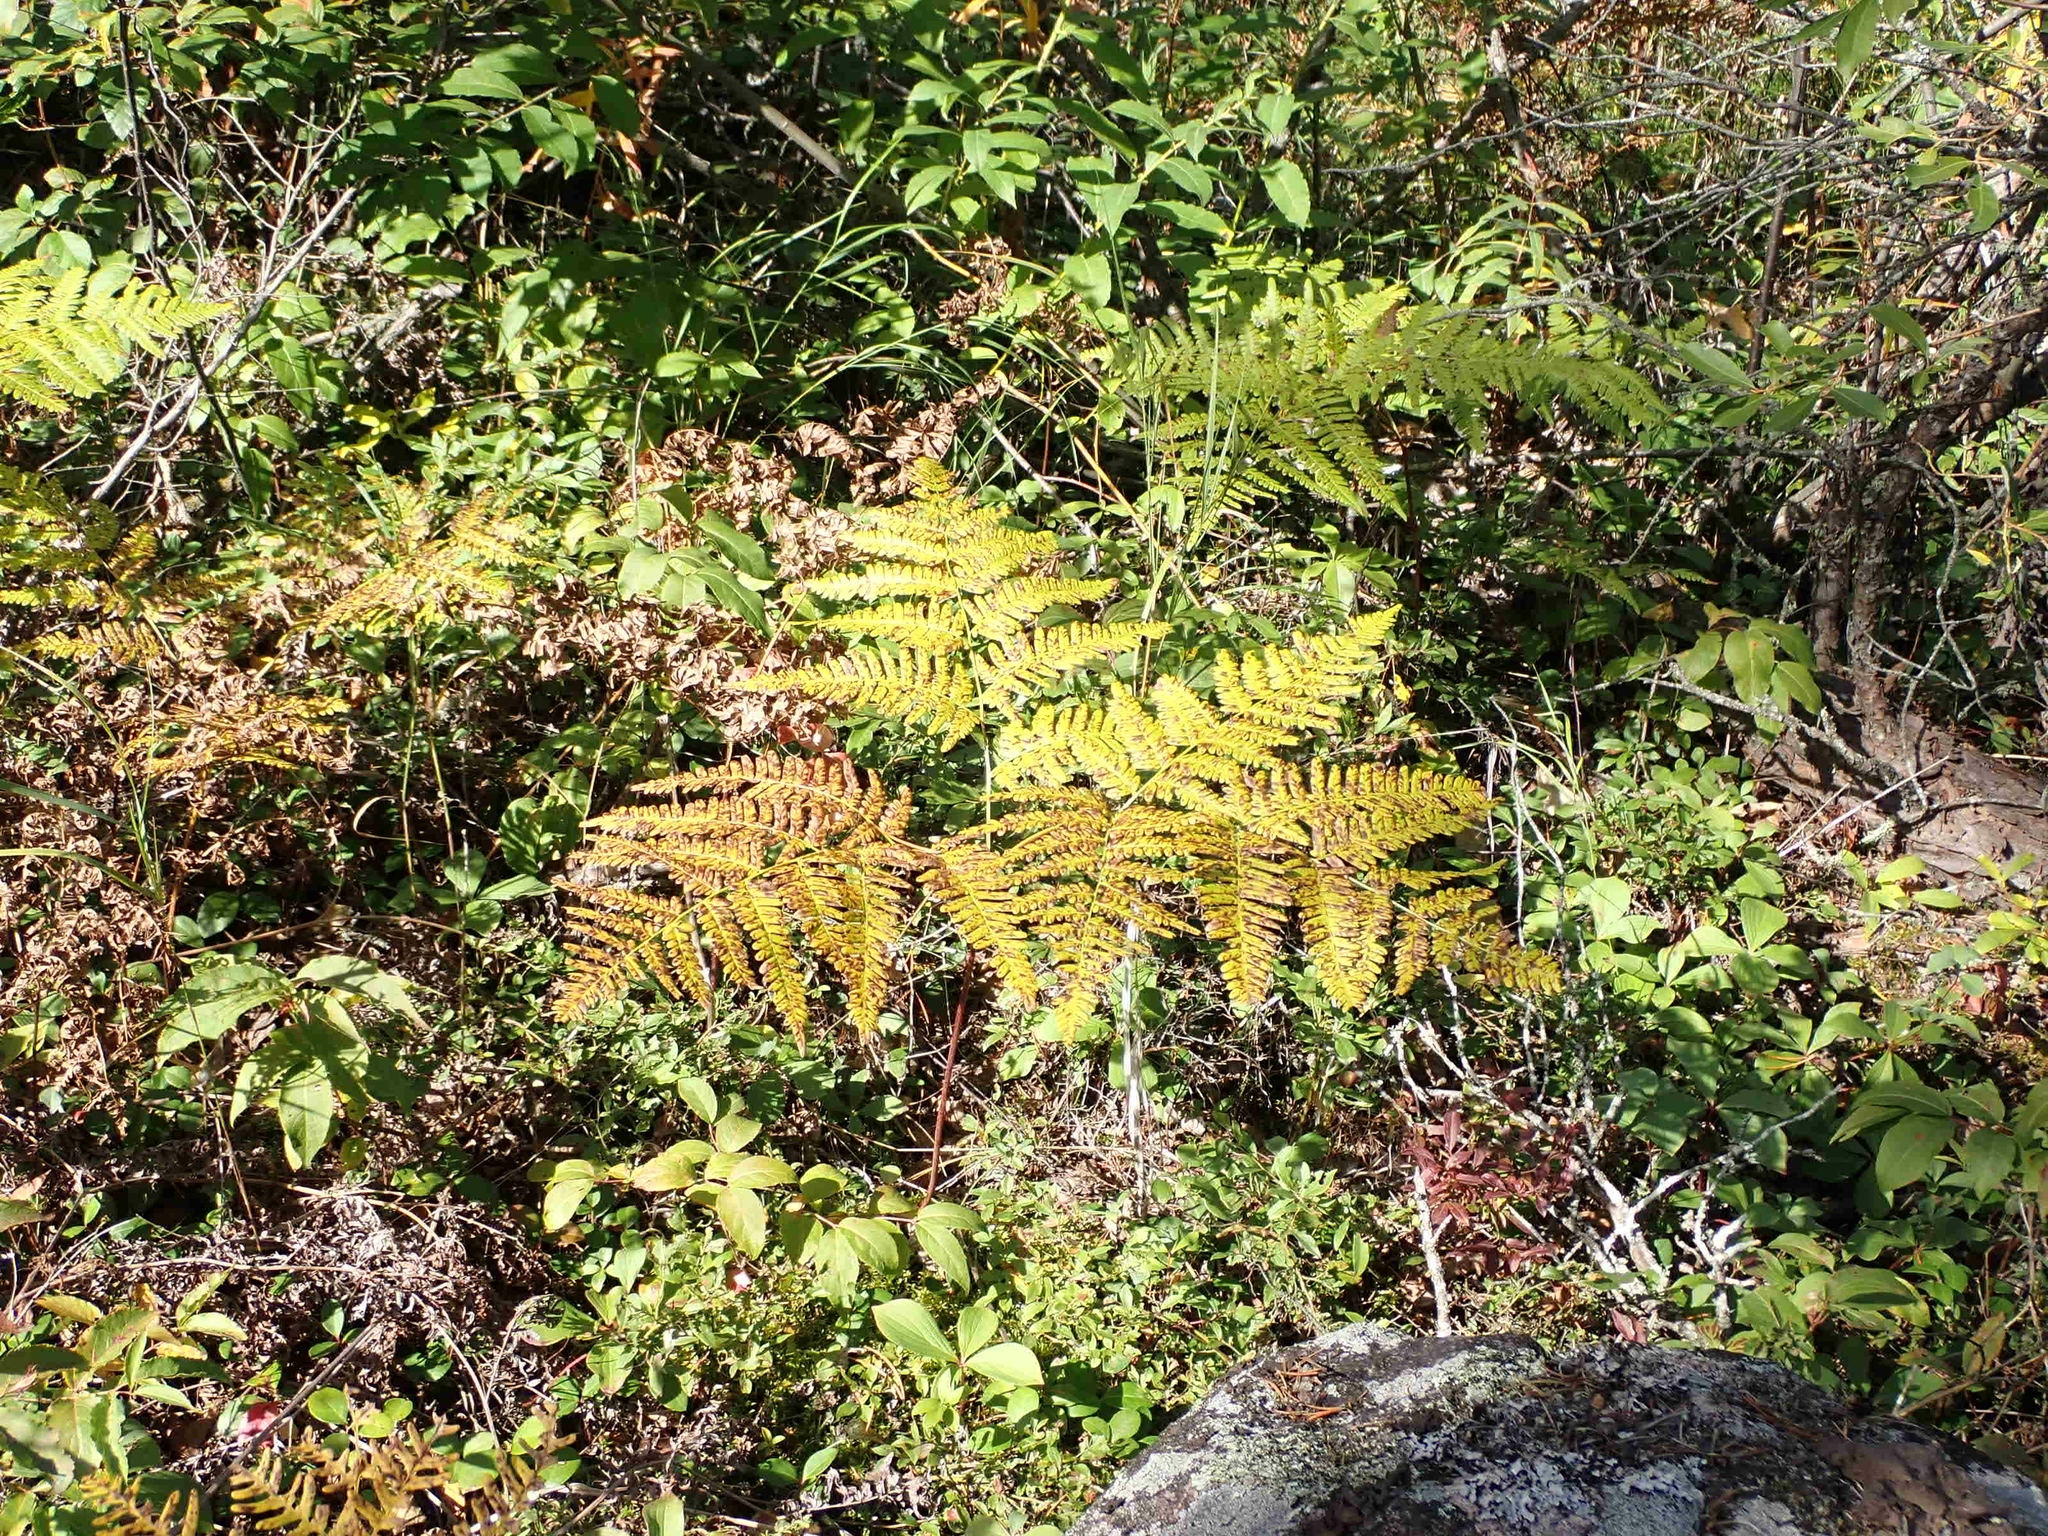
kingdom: Plantae
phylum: Tracheophyta
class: Polypodiopsida
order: Polypodiales
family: Dennstaedtiaceae
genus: Pteridium
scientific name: Pteridium aquilinum
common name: Bracken
